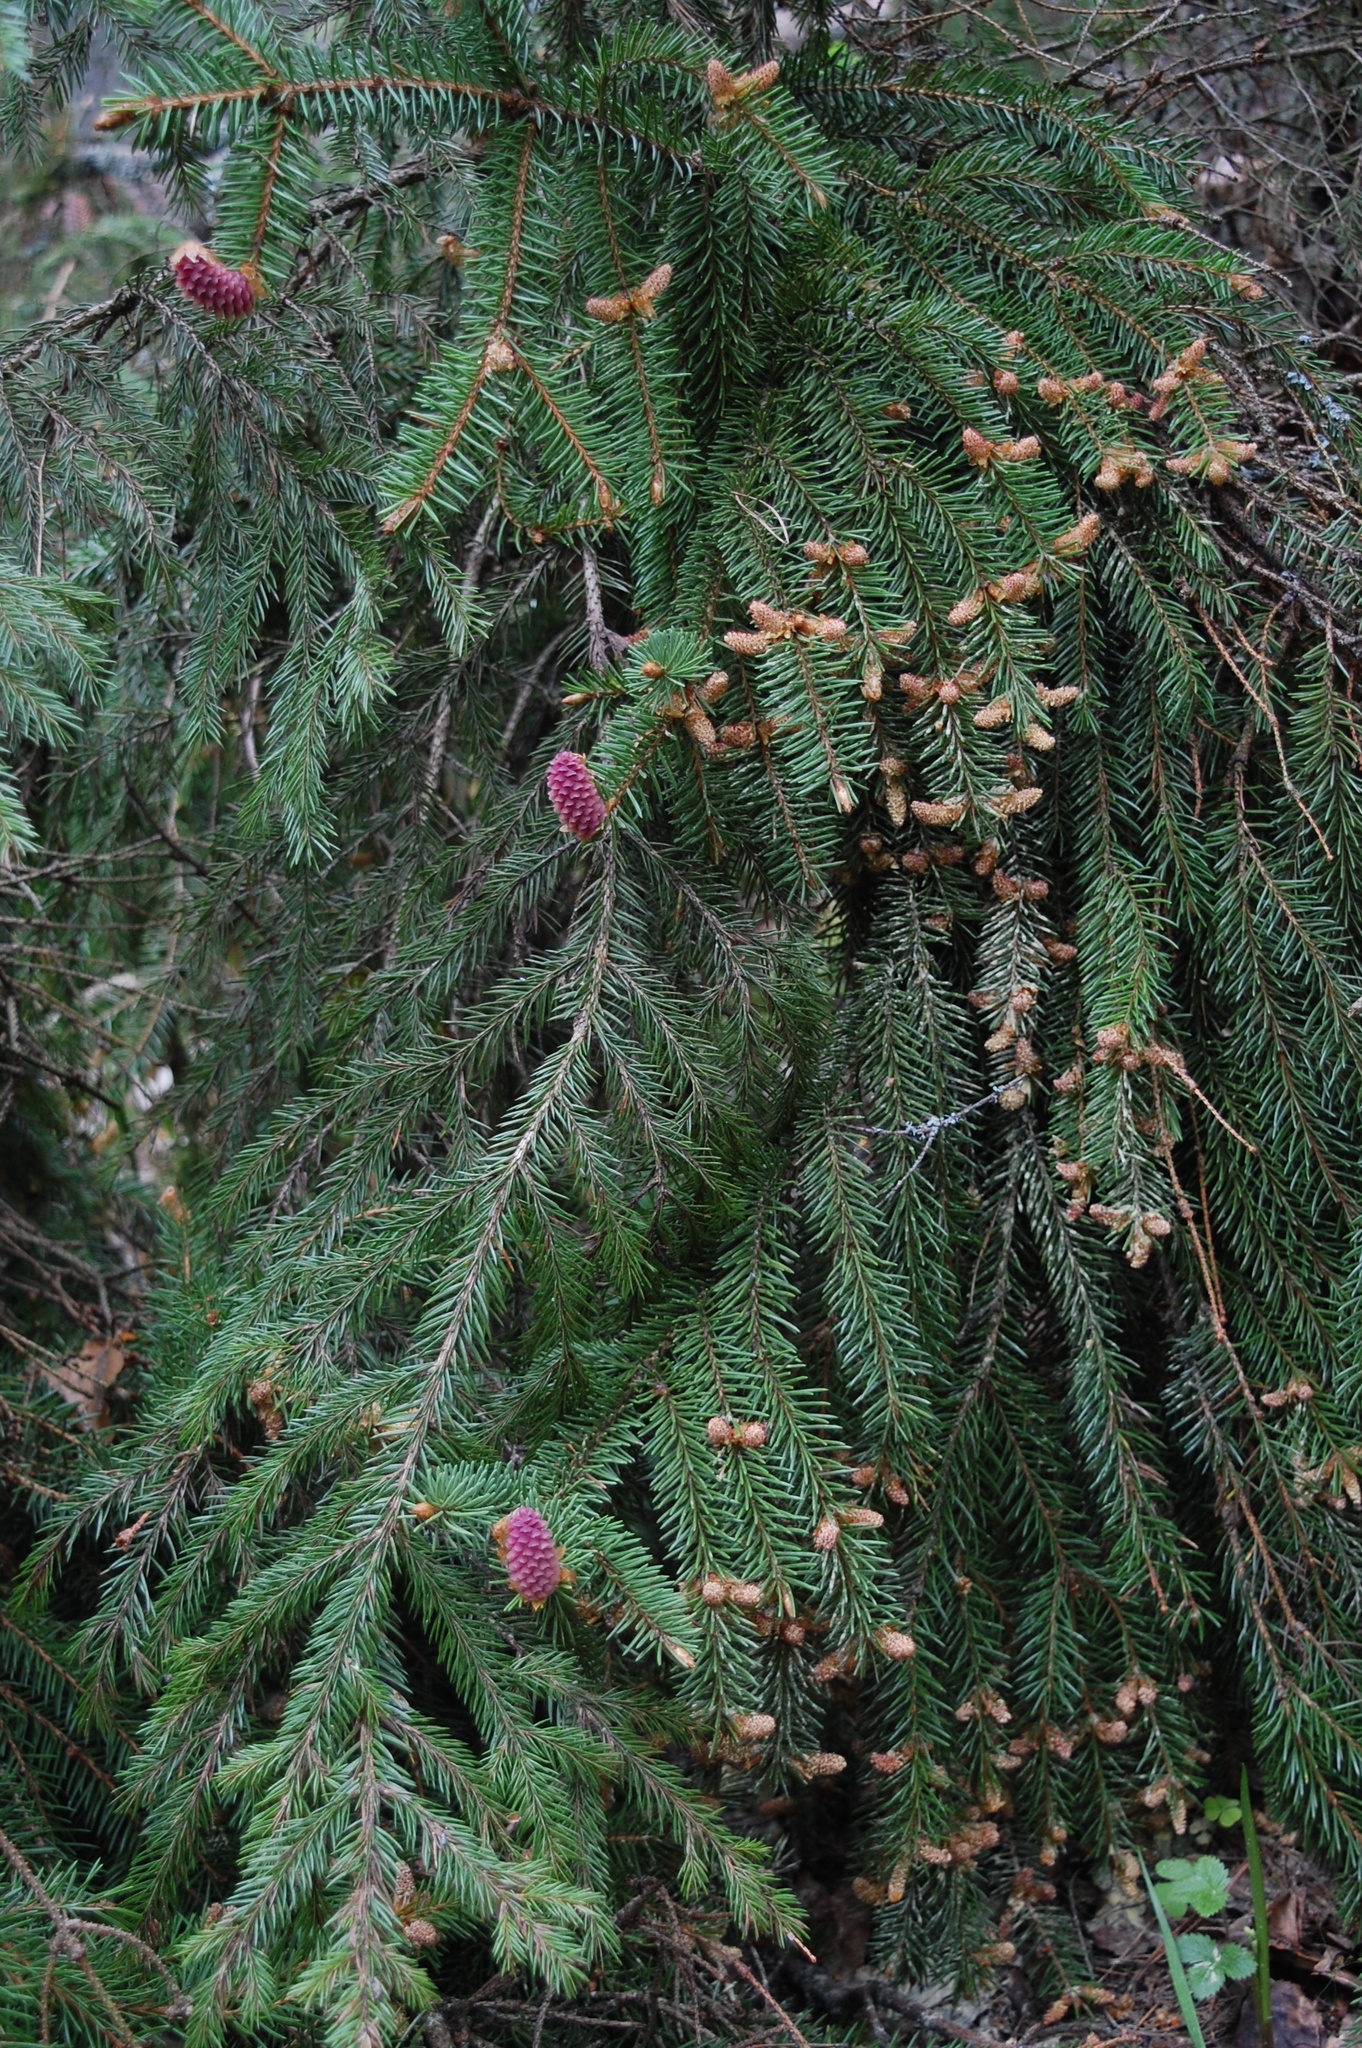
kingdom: Plantae
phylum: Tracheophyta
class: Pinopsida
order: Pinales
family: Pinaceae
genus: Picea
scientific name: Picea abies
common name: Norway spruce
